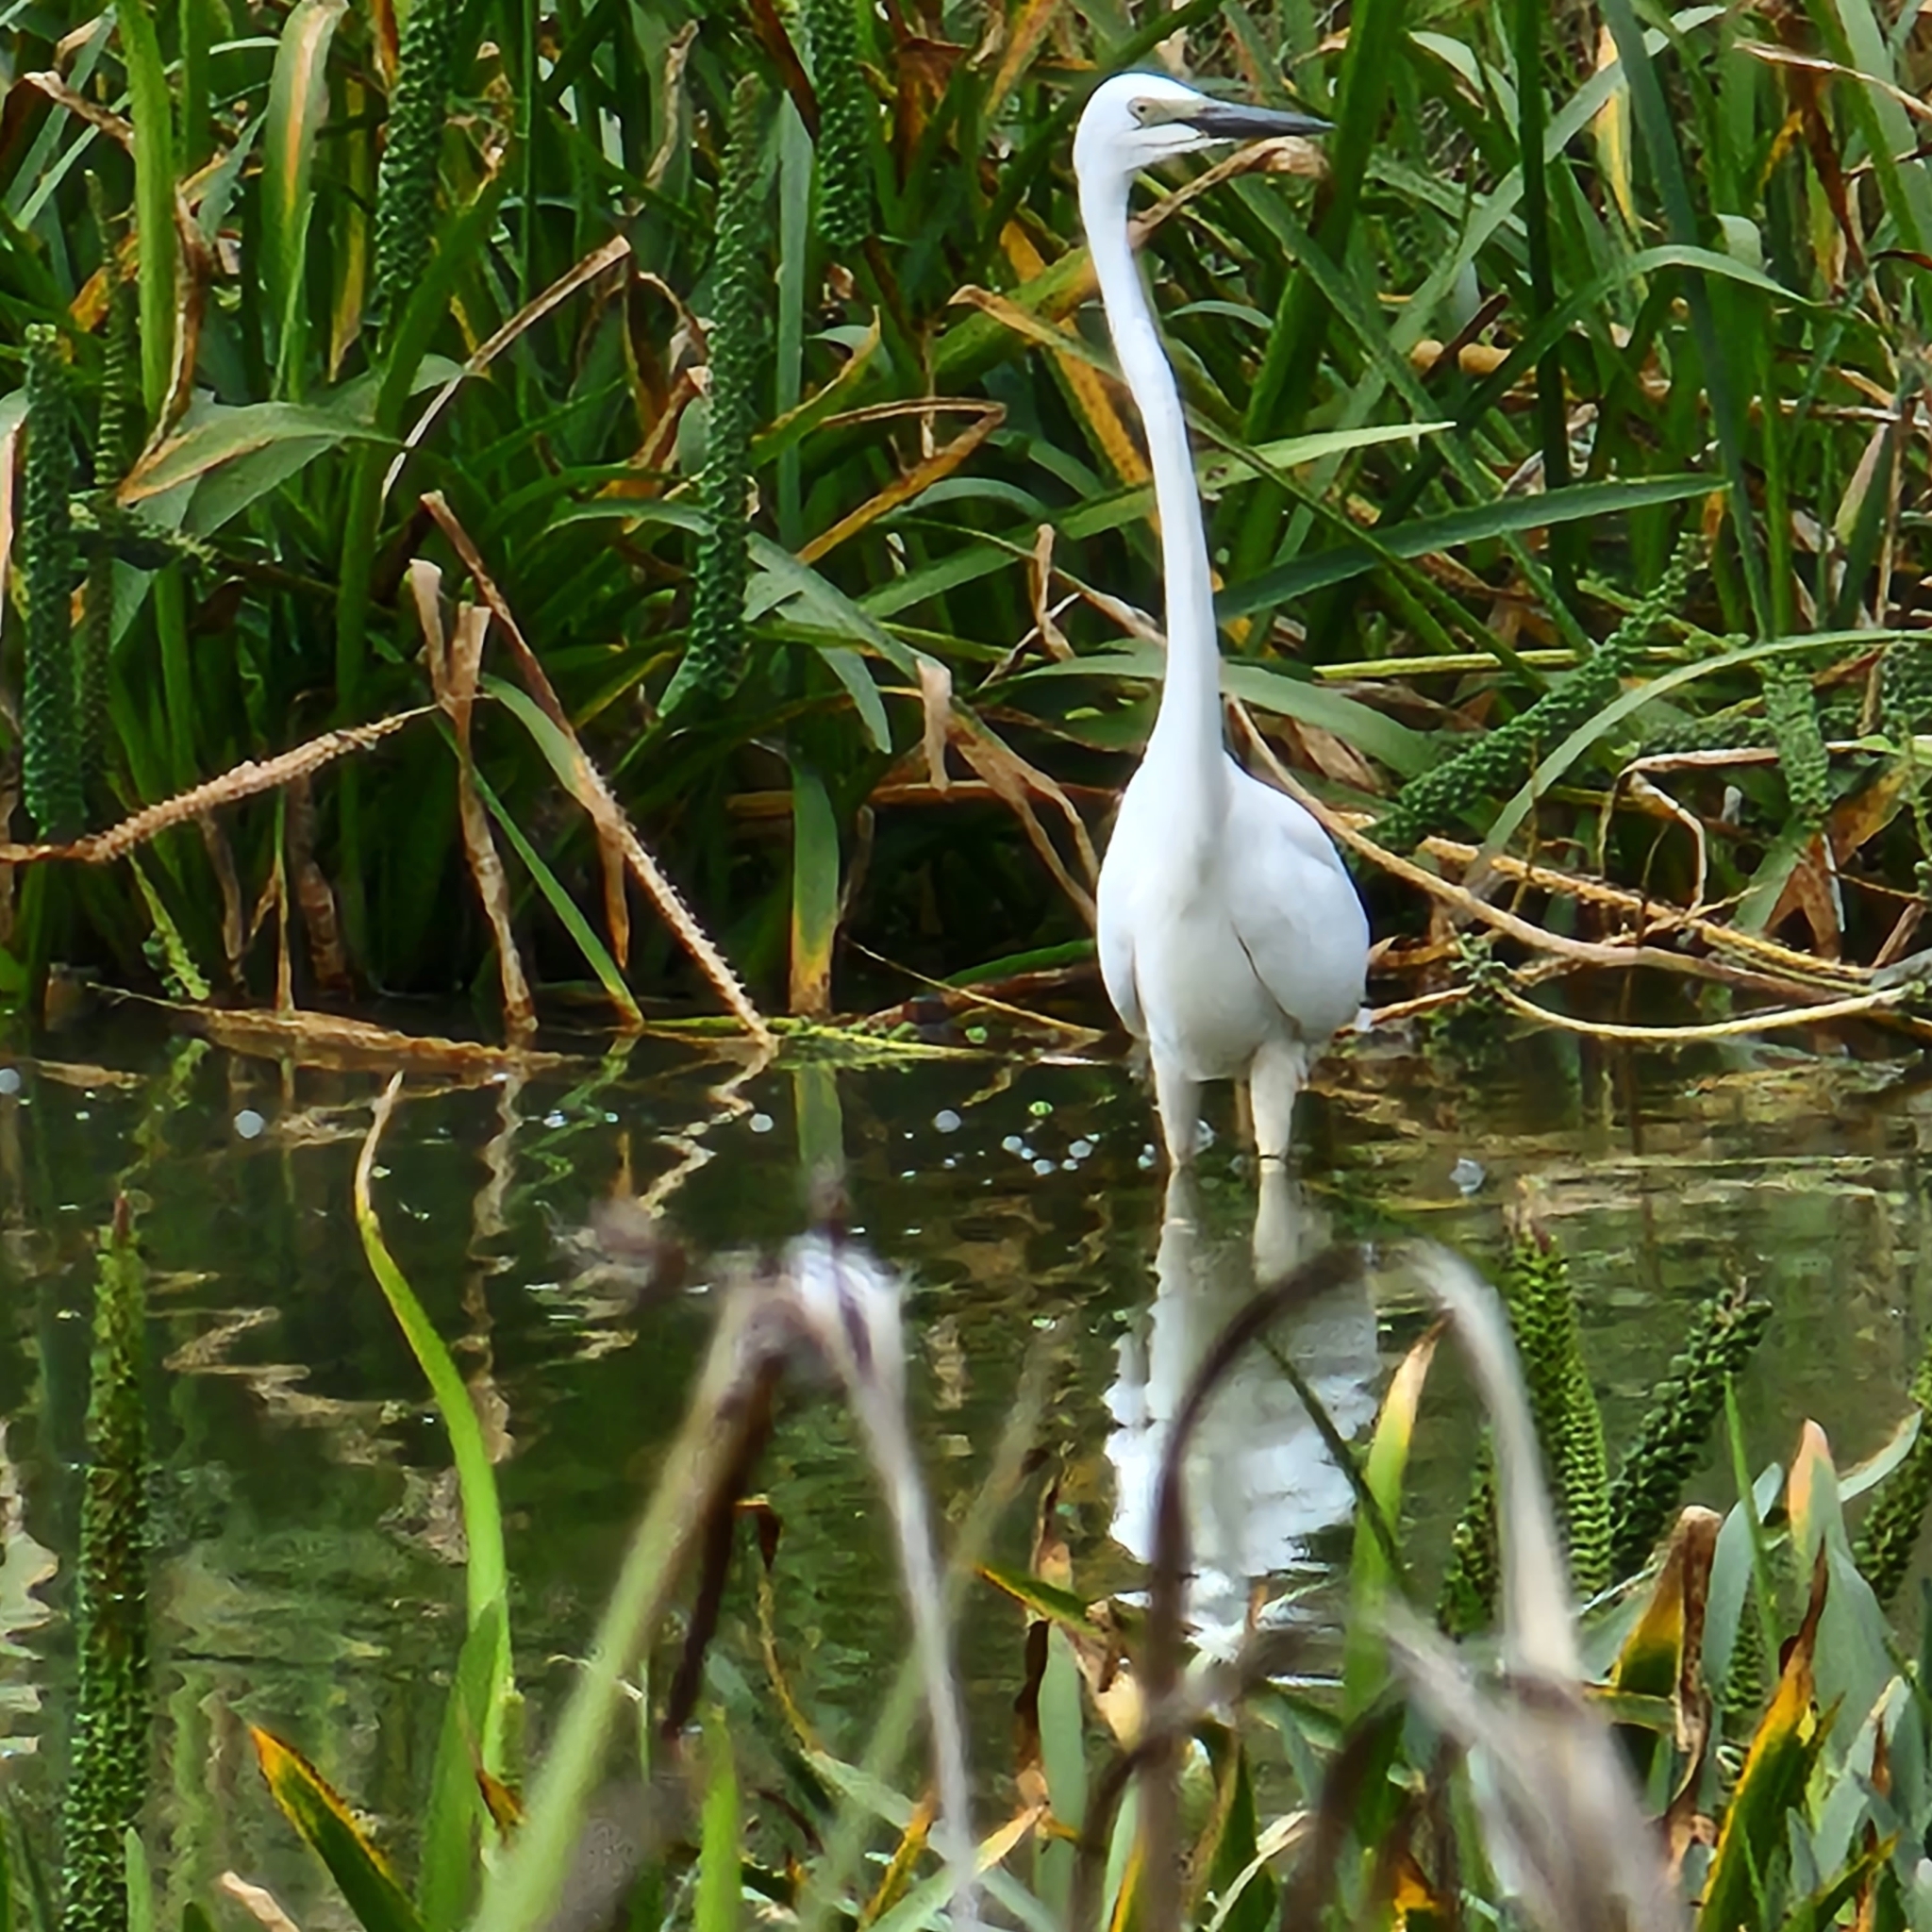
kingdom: Animalia
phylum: Chordata
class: Aves
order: Pelecaniformes
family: Ardeidae
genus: Ardea
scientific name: Ardea modesta
